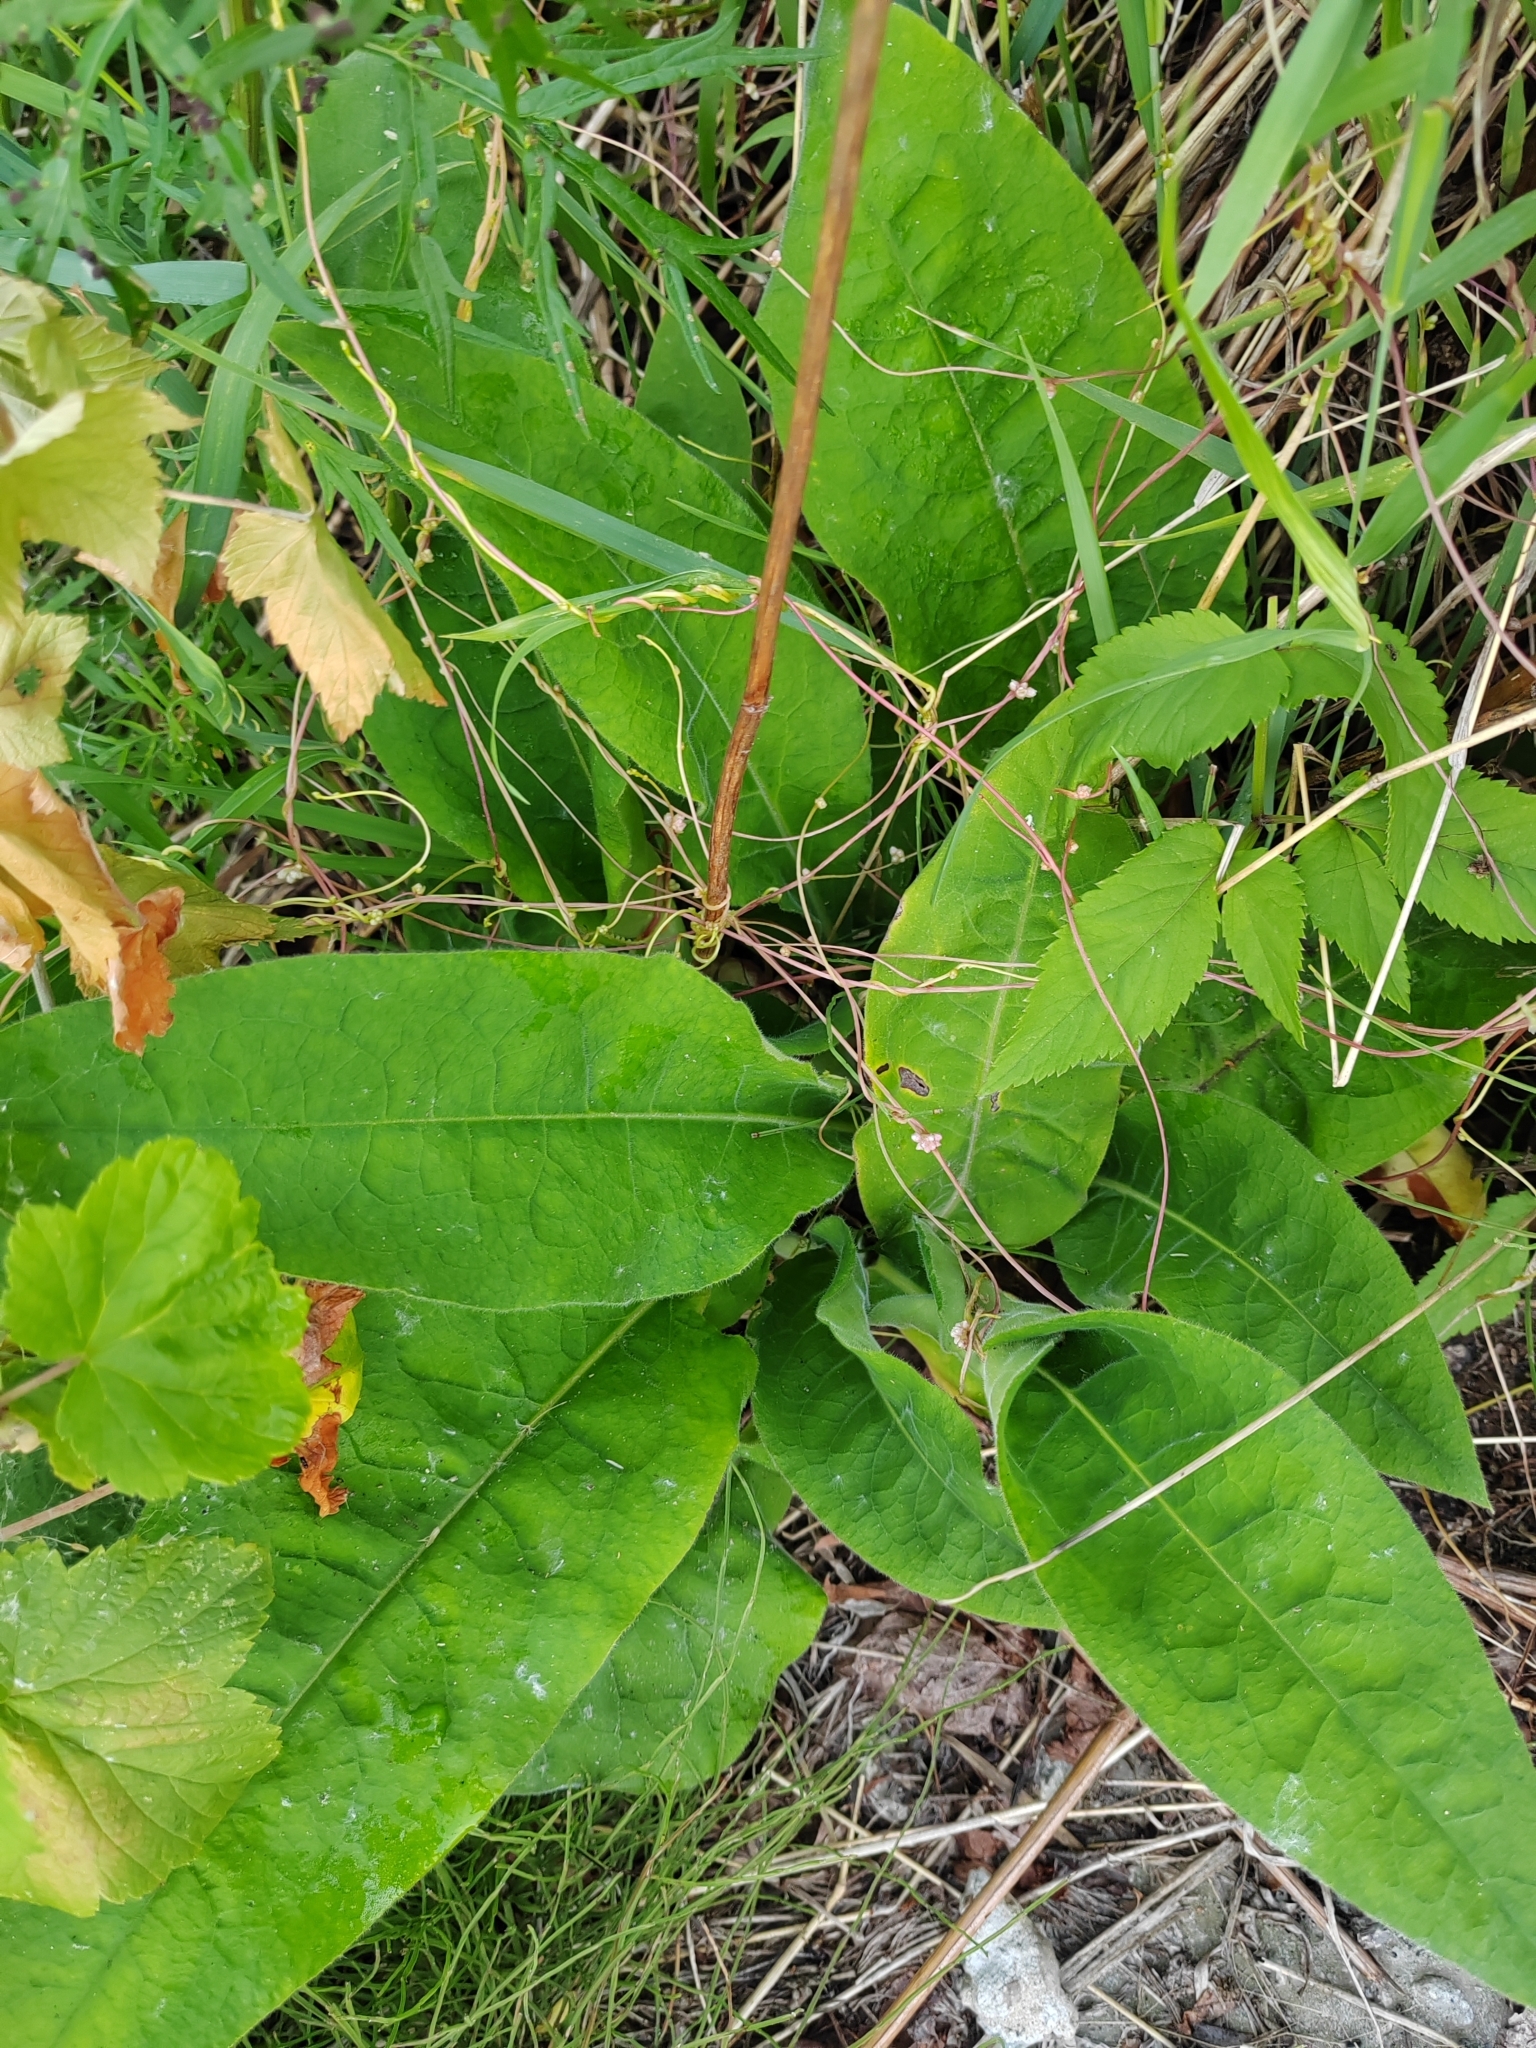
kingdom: Plantae
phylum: Tracheophyta
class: Magnoliopsida
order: Boraginales
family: Boraginaceae
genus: Pulmonaria
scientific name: Pulmonaria mollis
